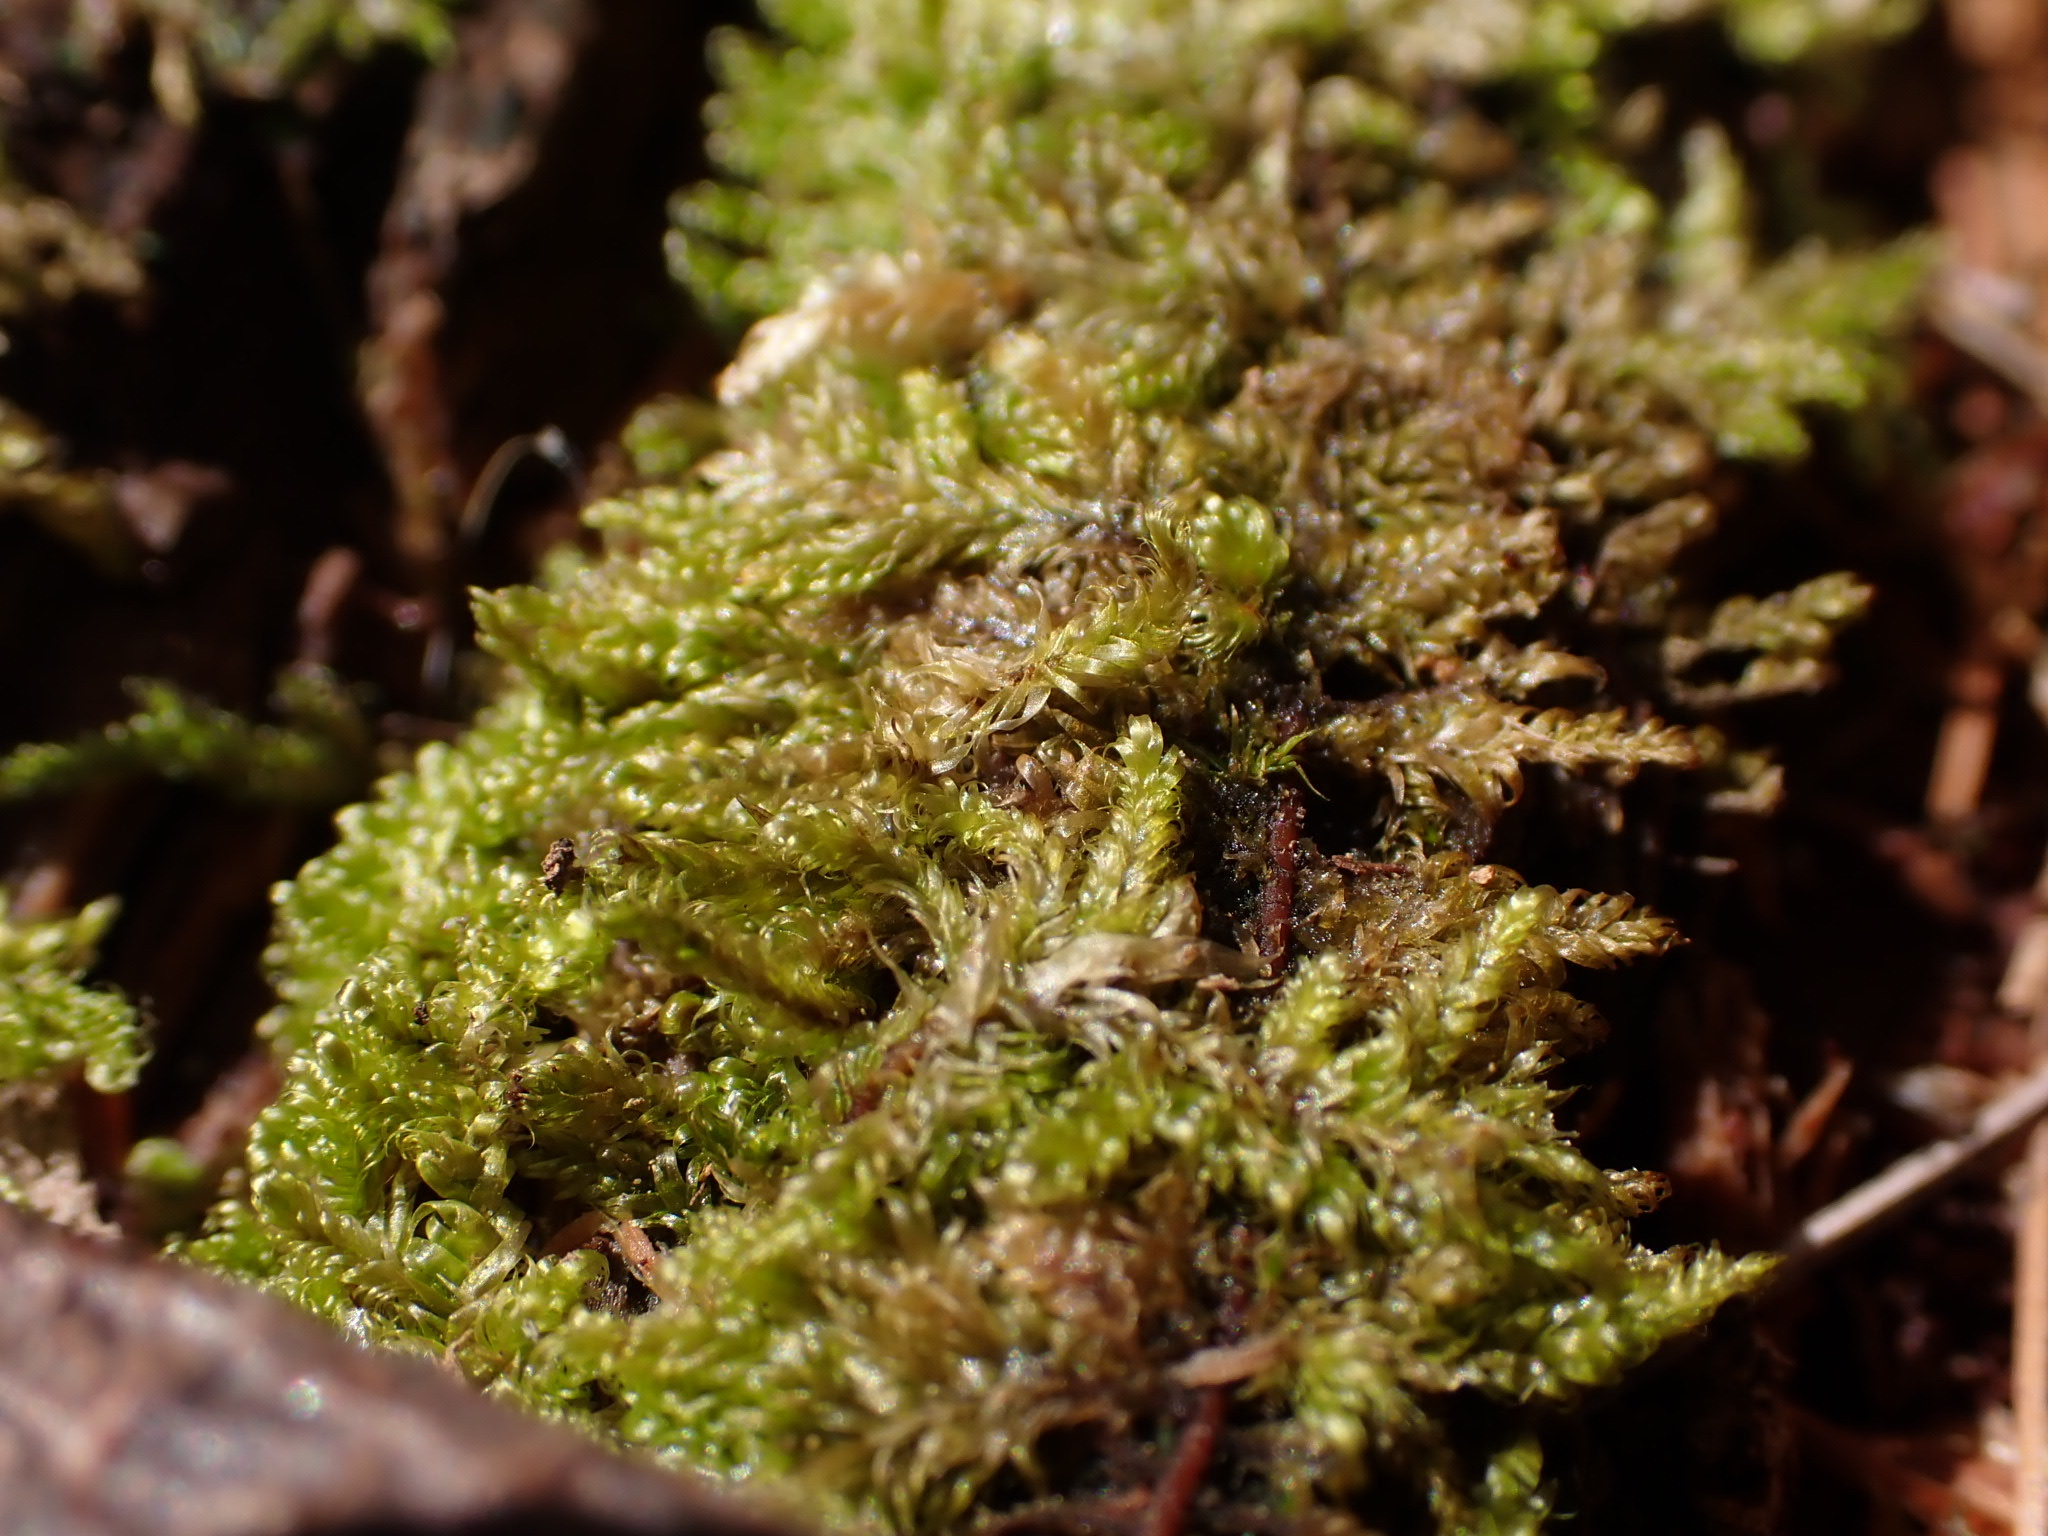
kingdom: Plantae
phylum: Bryophyta
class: Bryopsida
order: Hypnales
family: Callicladiaceae
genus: Callicladium
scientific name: Callicladium imponens
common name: Brocade moss
